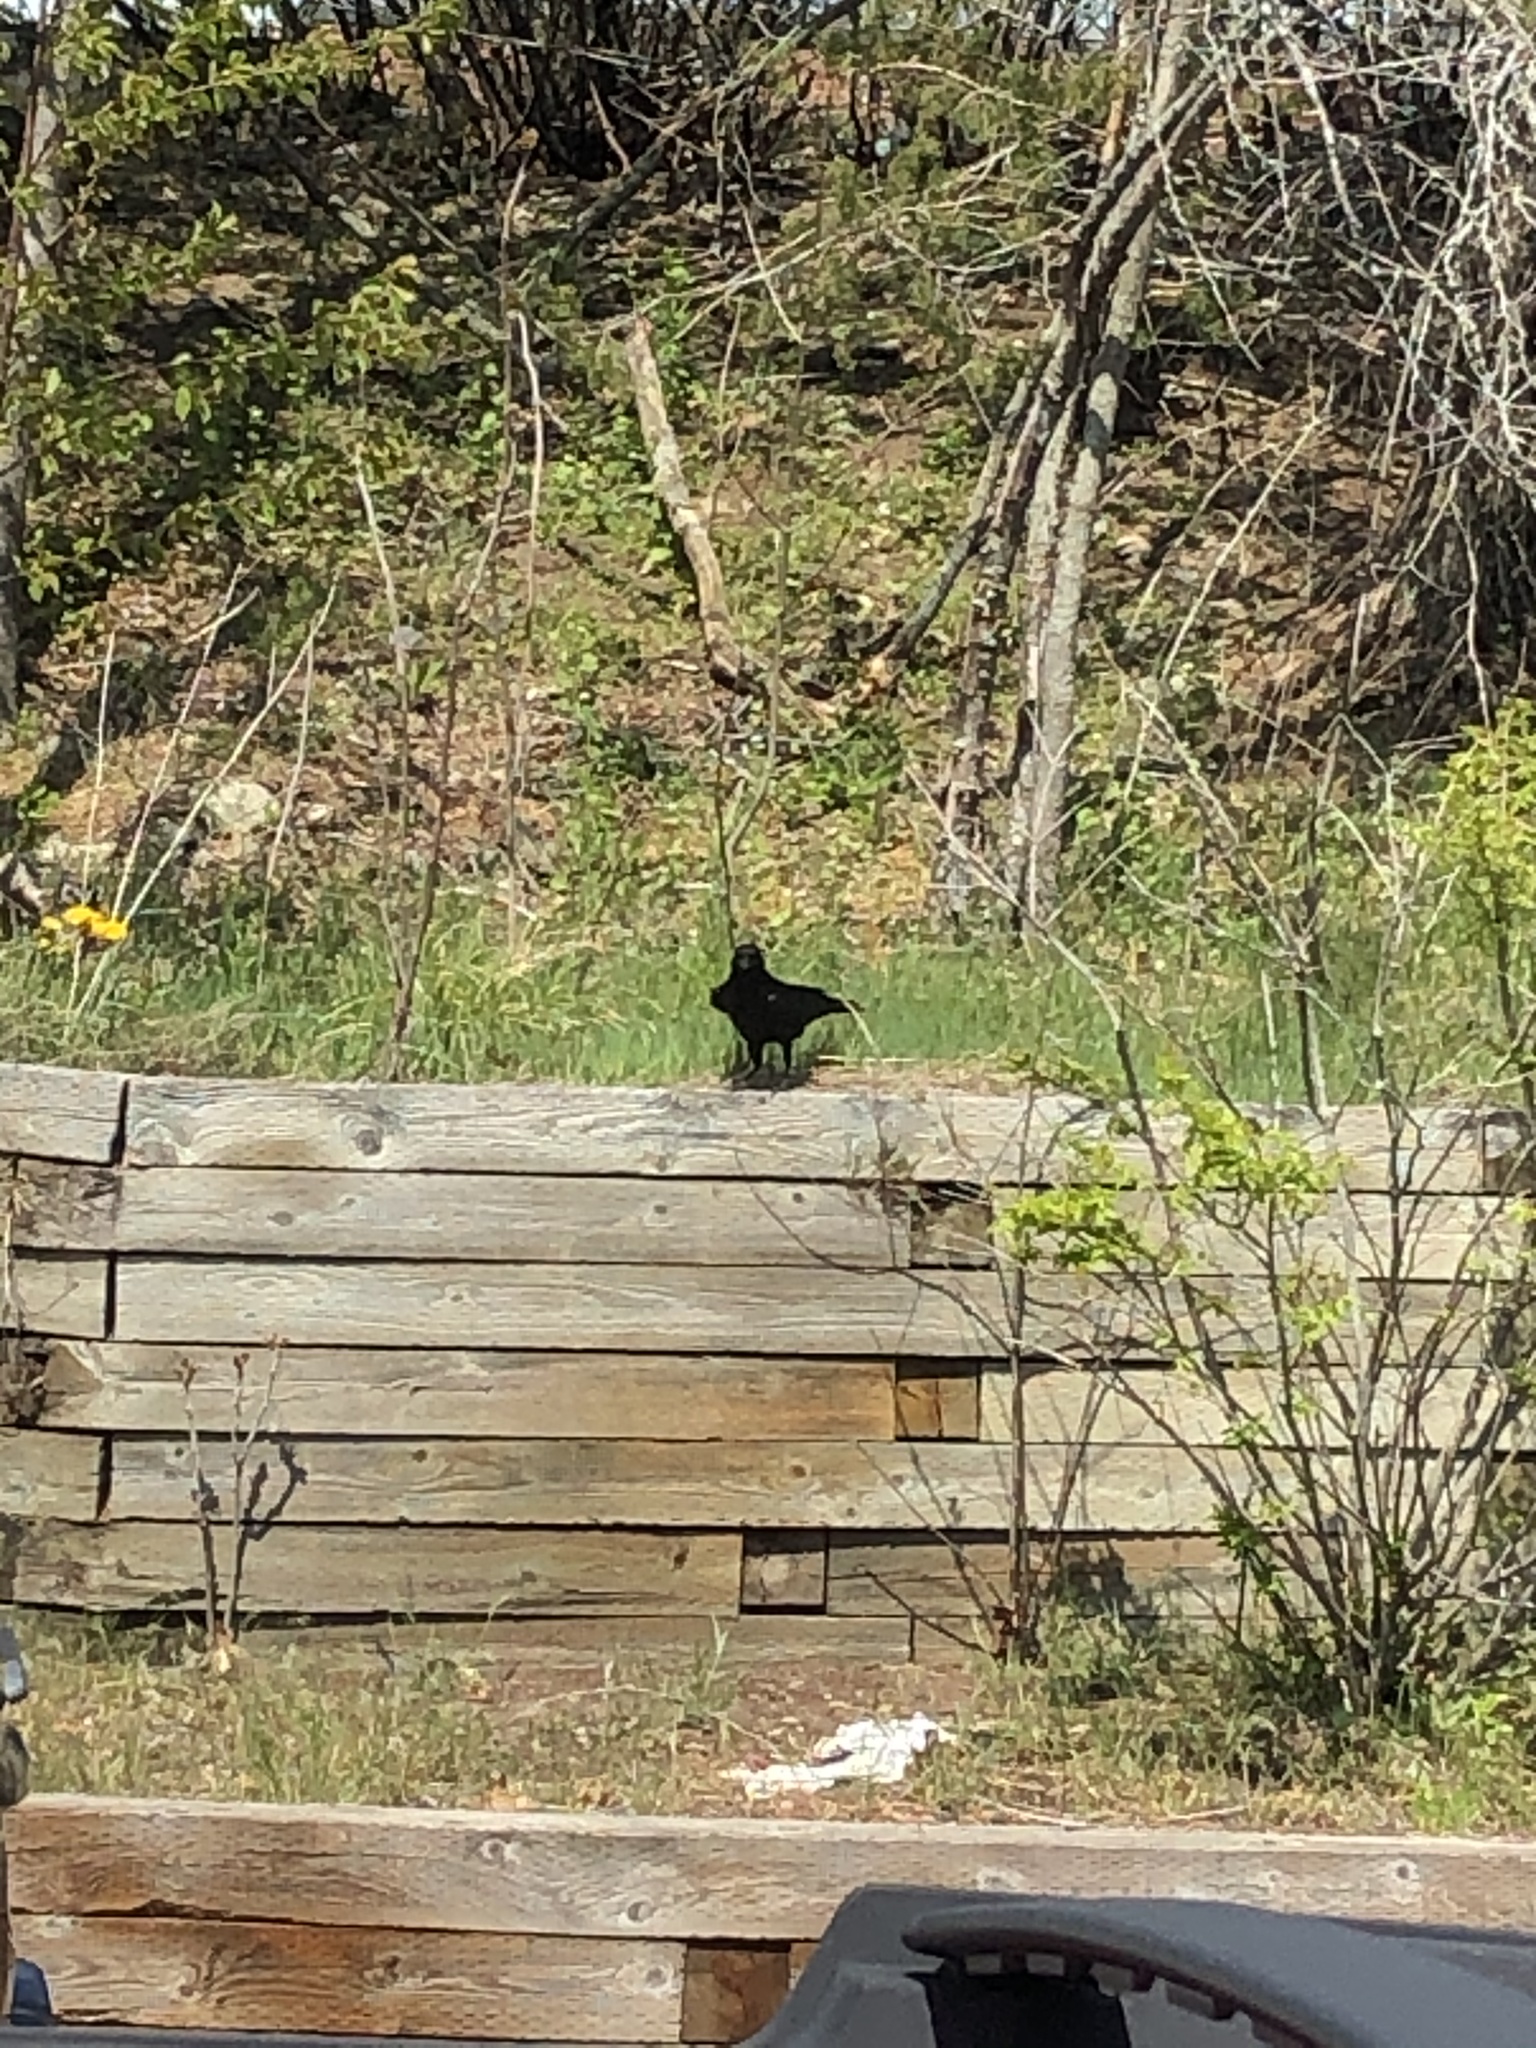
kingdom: Animalia
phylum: Chordata
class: Aves
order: Passeriformes
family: Corvidae
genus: Corvus
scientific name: Corvus brachyrhynchos
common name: American crow
